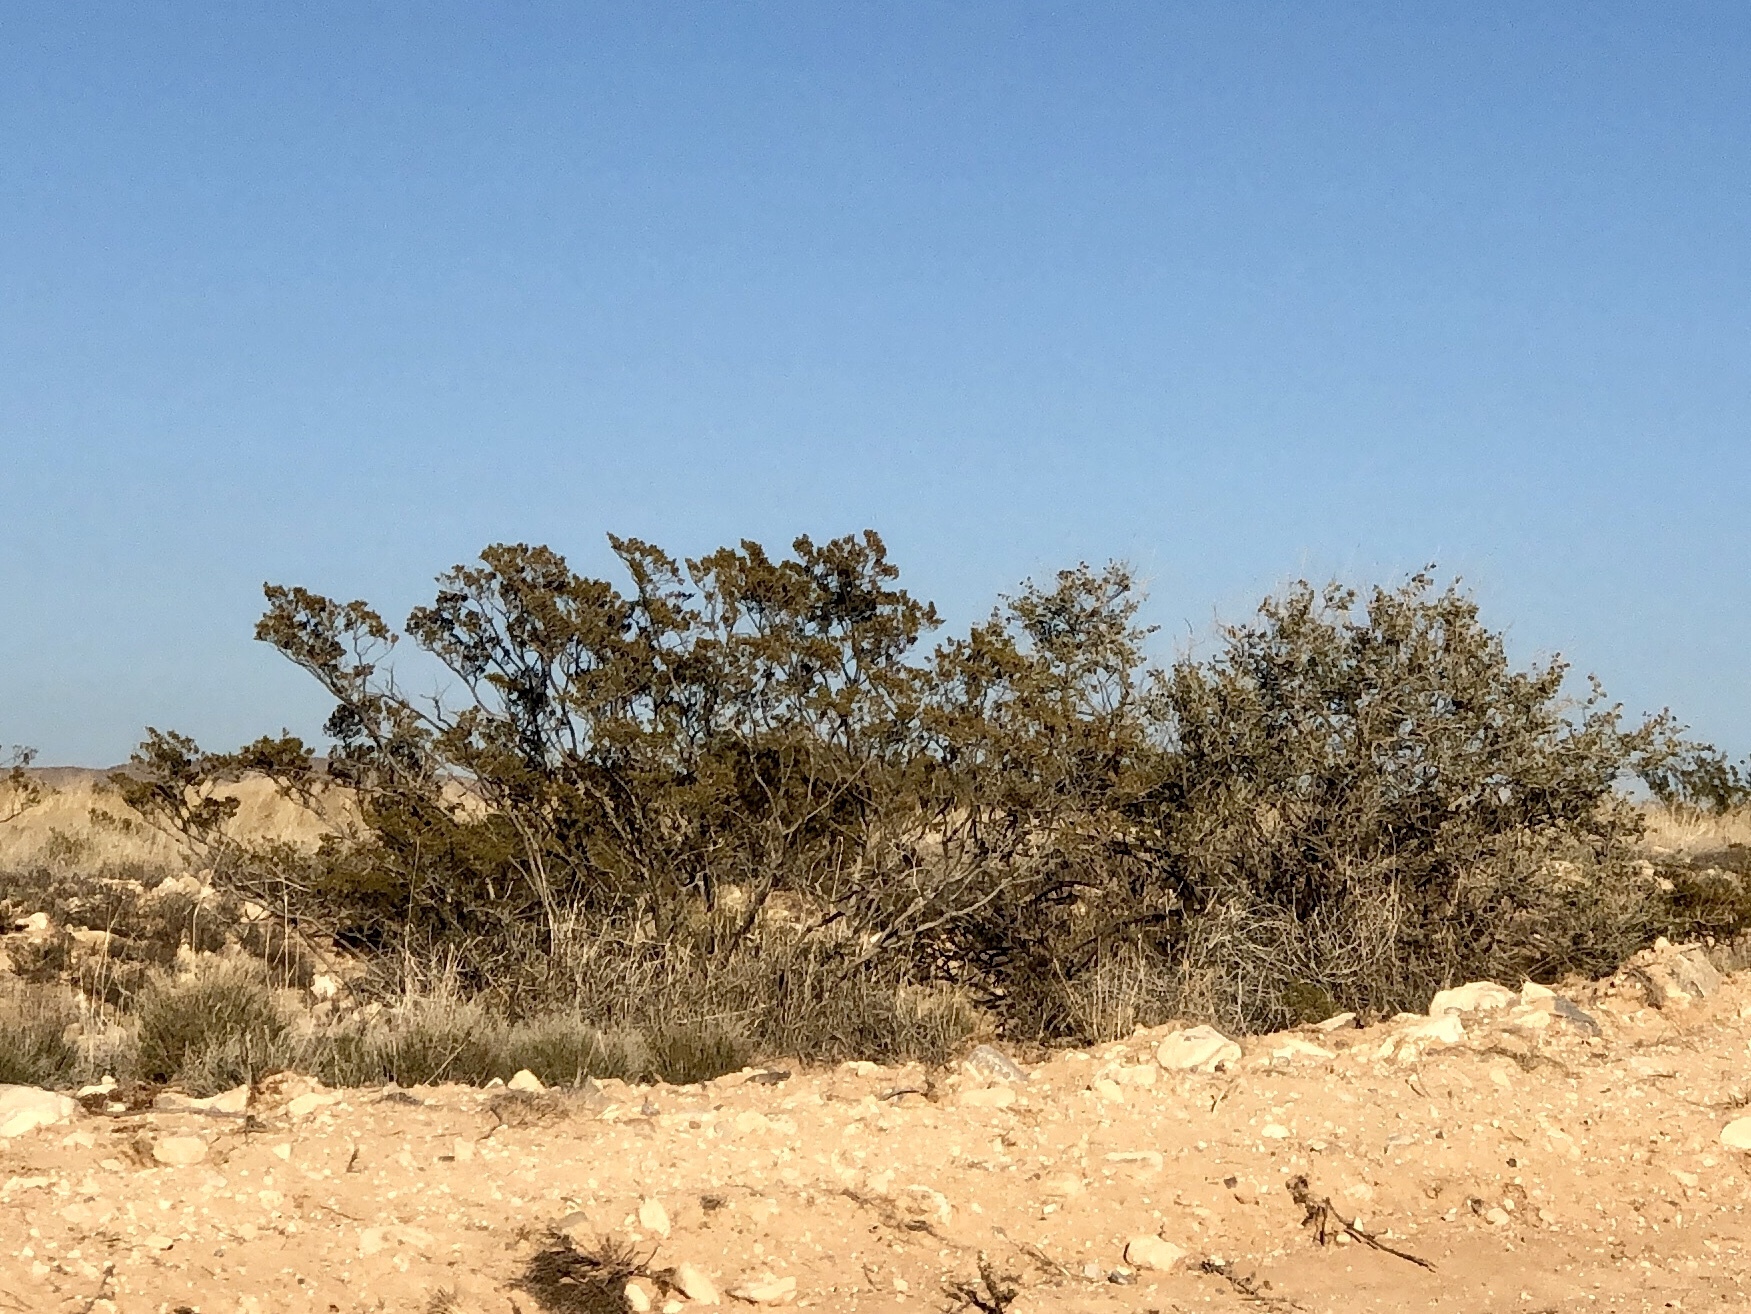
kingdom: Plantae
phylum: Tracheophyta
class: Magnoliopsida
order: Zygophyllales
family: Zygophyllaceae
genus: Larrea
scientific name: Larrea tridentata
